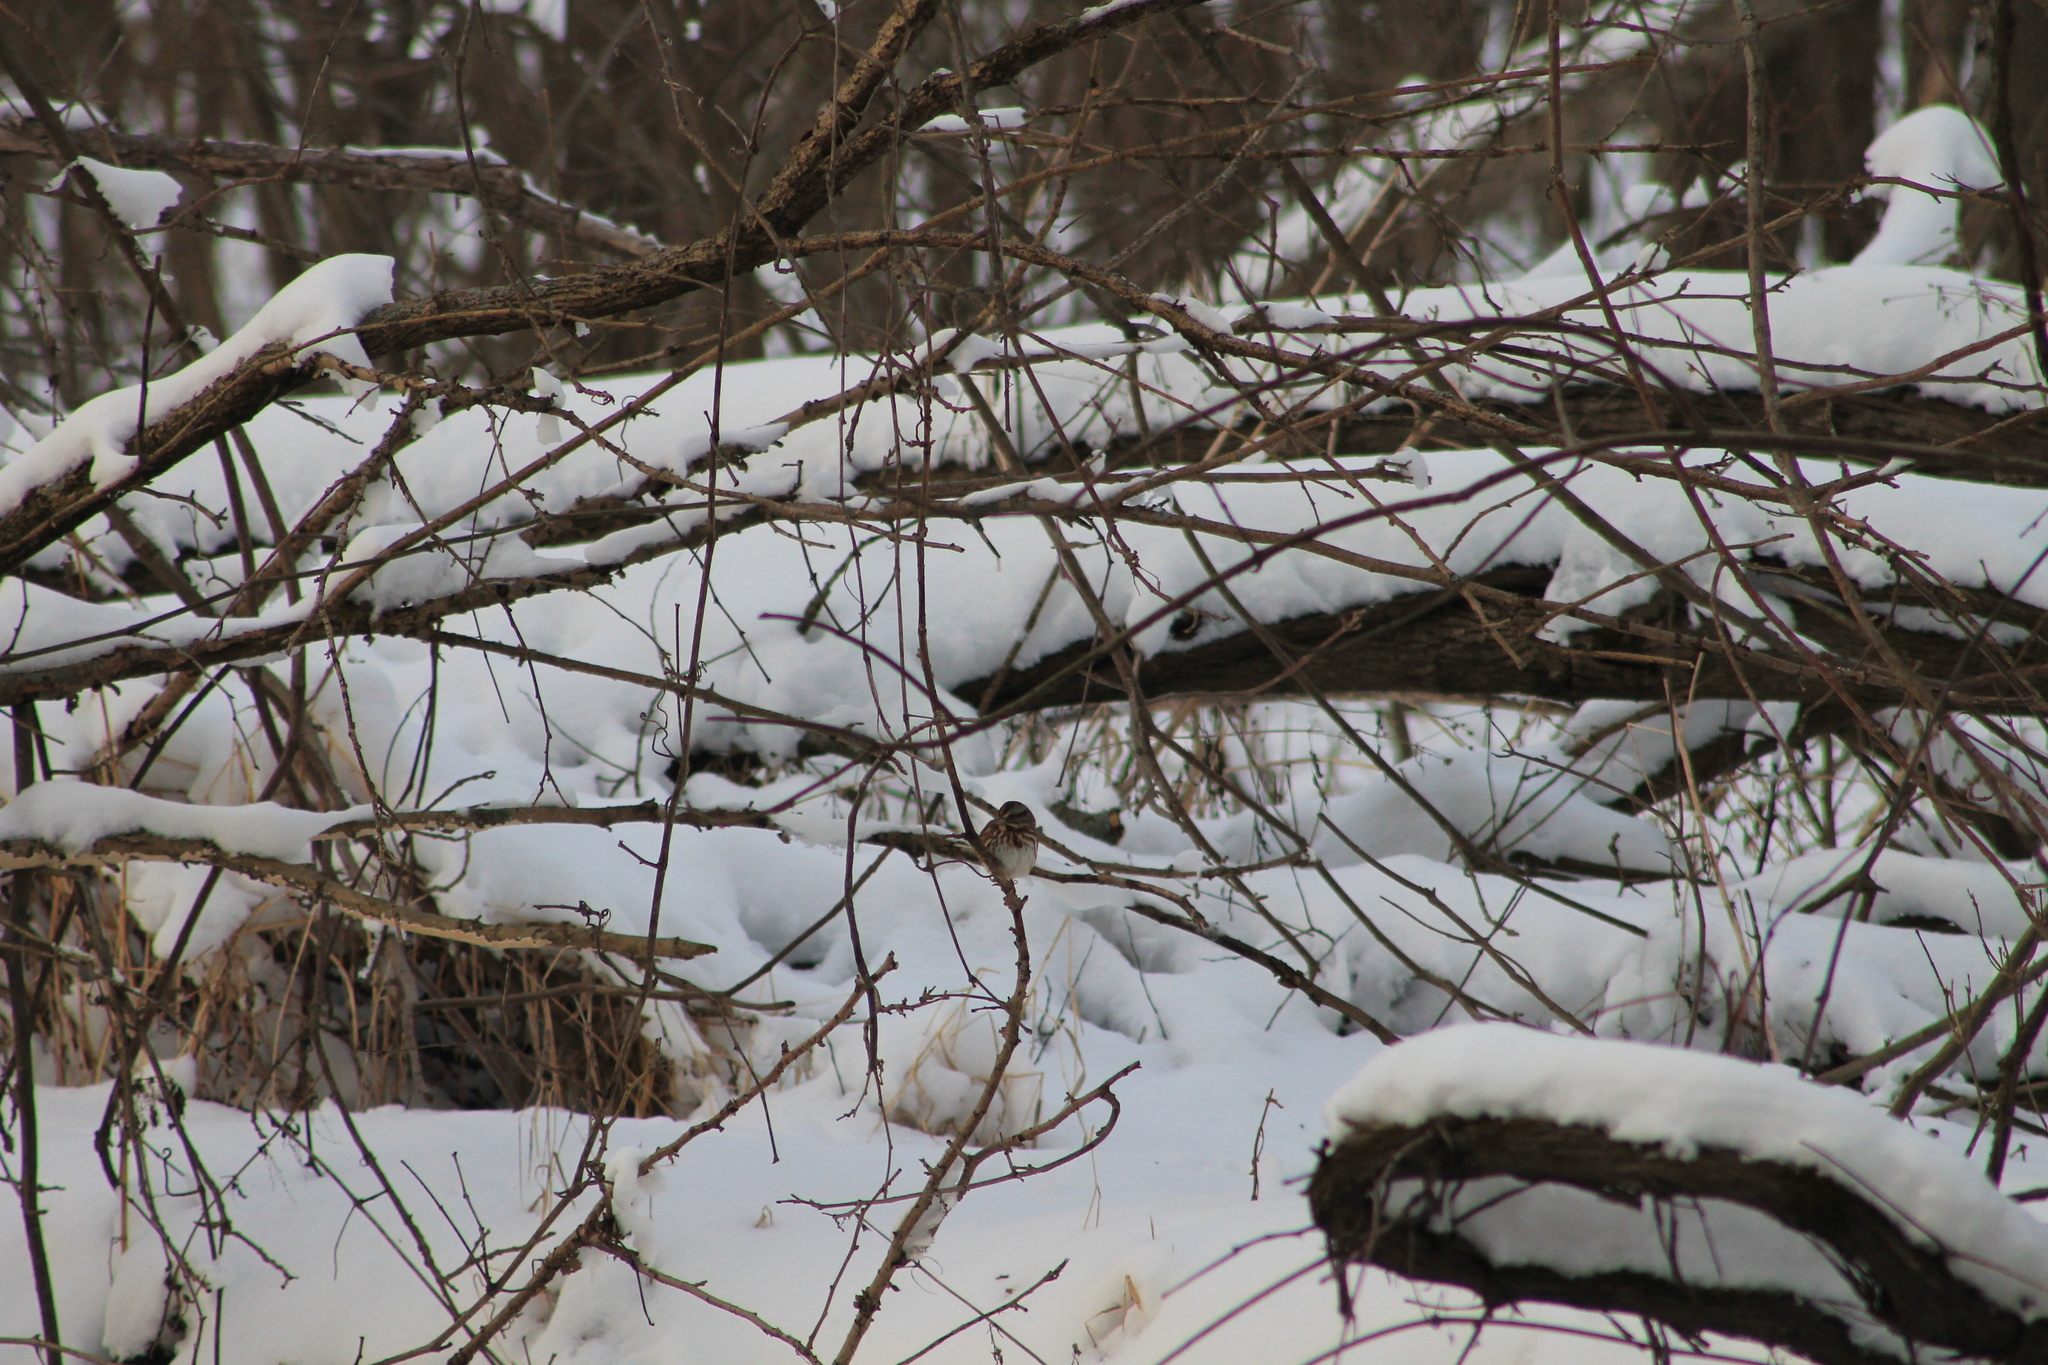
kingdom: Animalia
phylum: Chordata
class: Aves
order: Passeriformes
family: Passerellidae
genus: Melospiza
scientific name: Melospiza melodia
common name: Song sparrow
